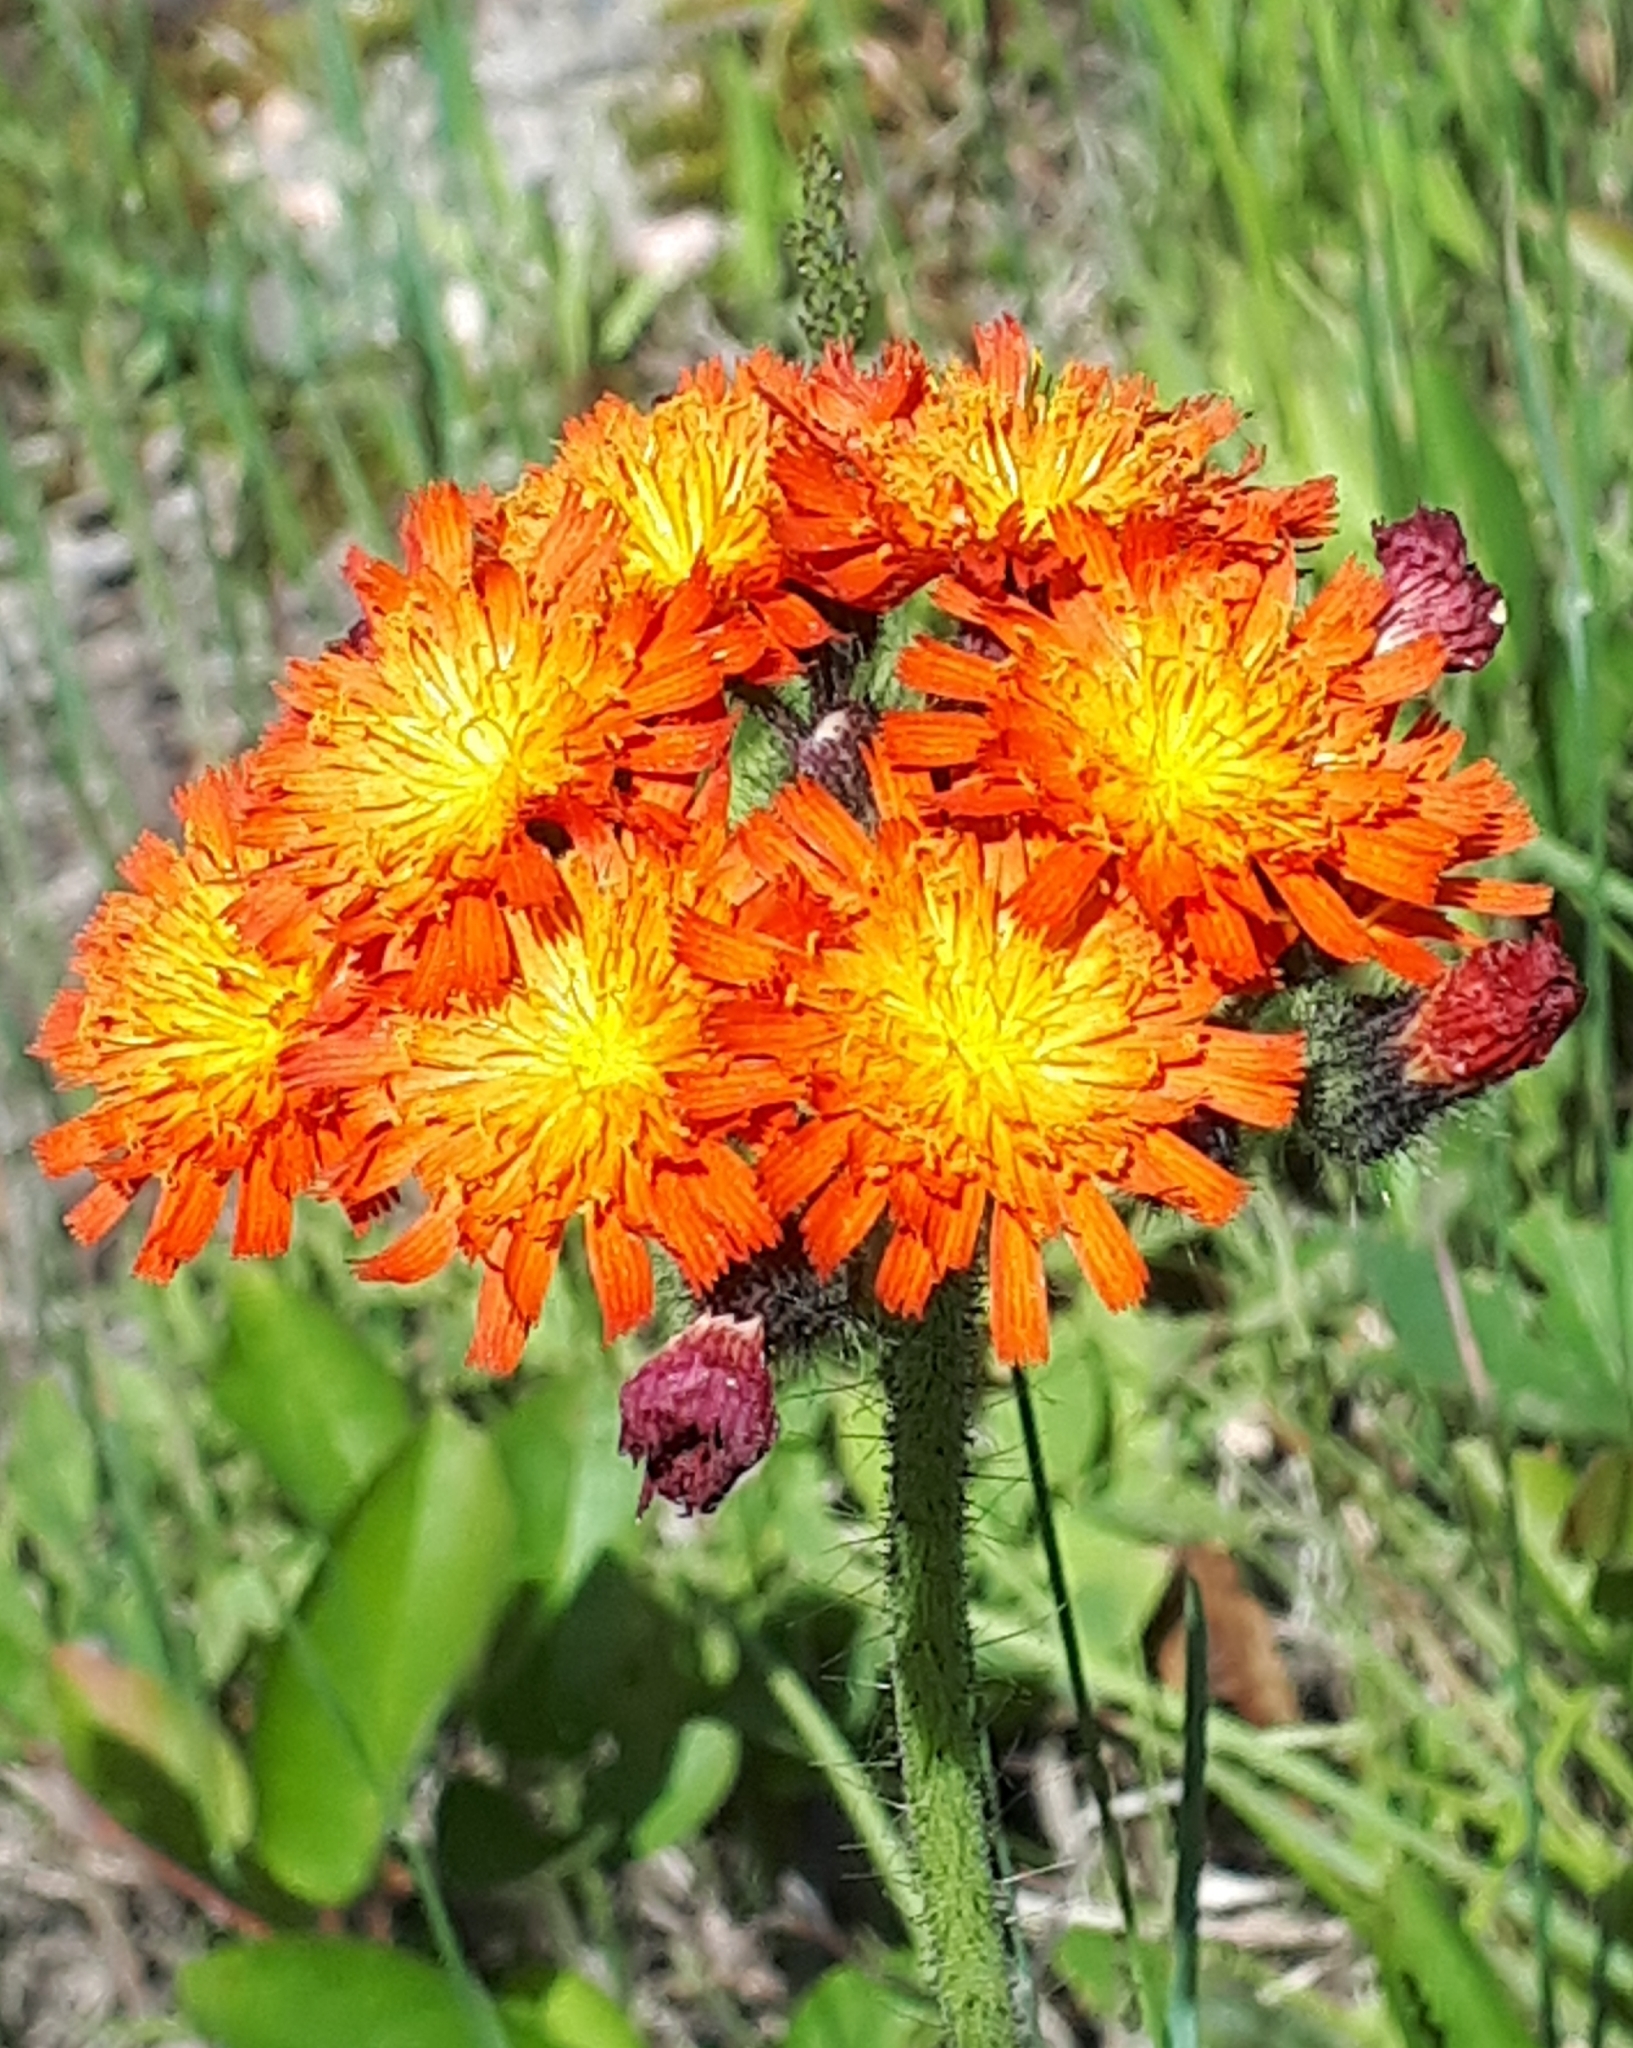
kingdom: Plantae
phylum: Tracheophyta
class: Magnoliopsida
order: Asterales
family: Asteraceae
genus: Pilosella
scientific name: Pilosella aurantiaca
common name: Fox-and-cubs
